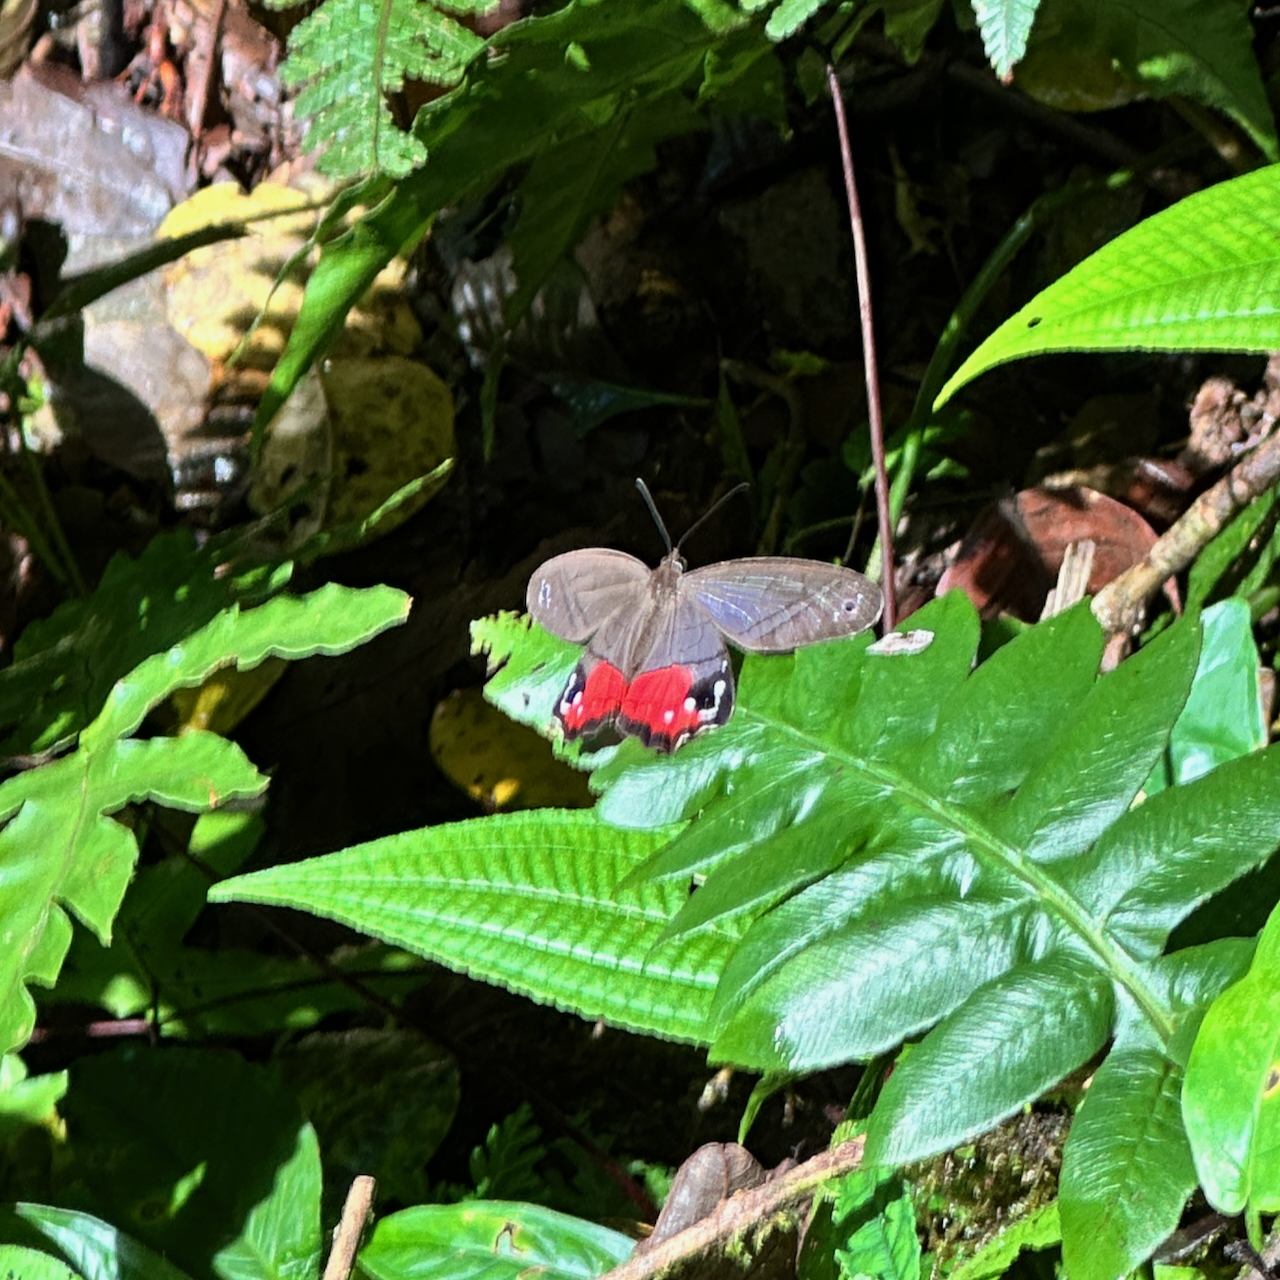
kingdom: Animalia
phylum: Arthropoda
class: Insecta
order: Lepidoptera
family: Nymphalidae
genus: Pierella
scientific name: Pierella helvina
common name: Red-washed satyr
